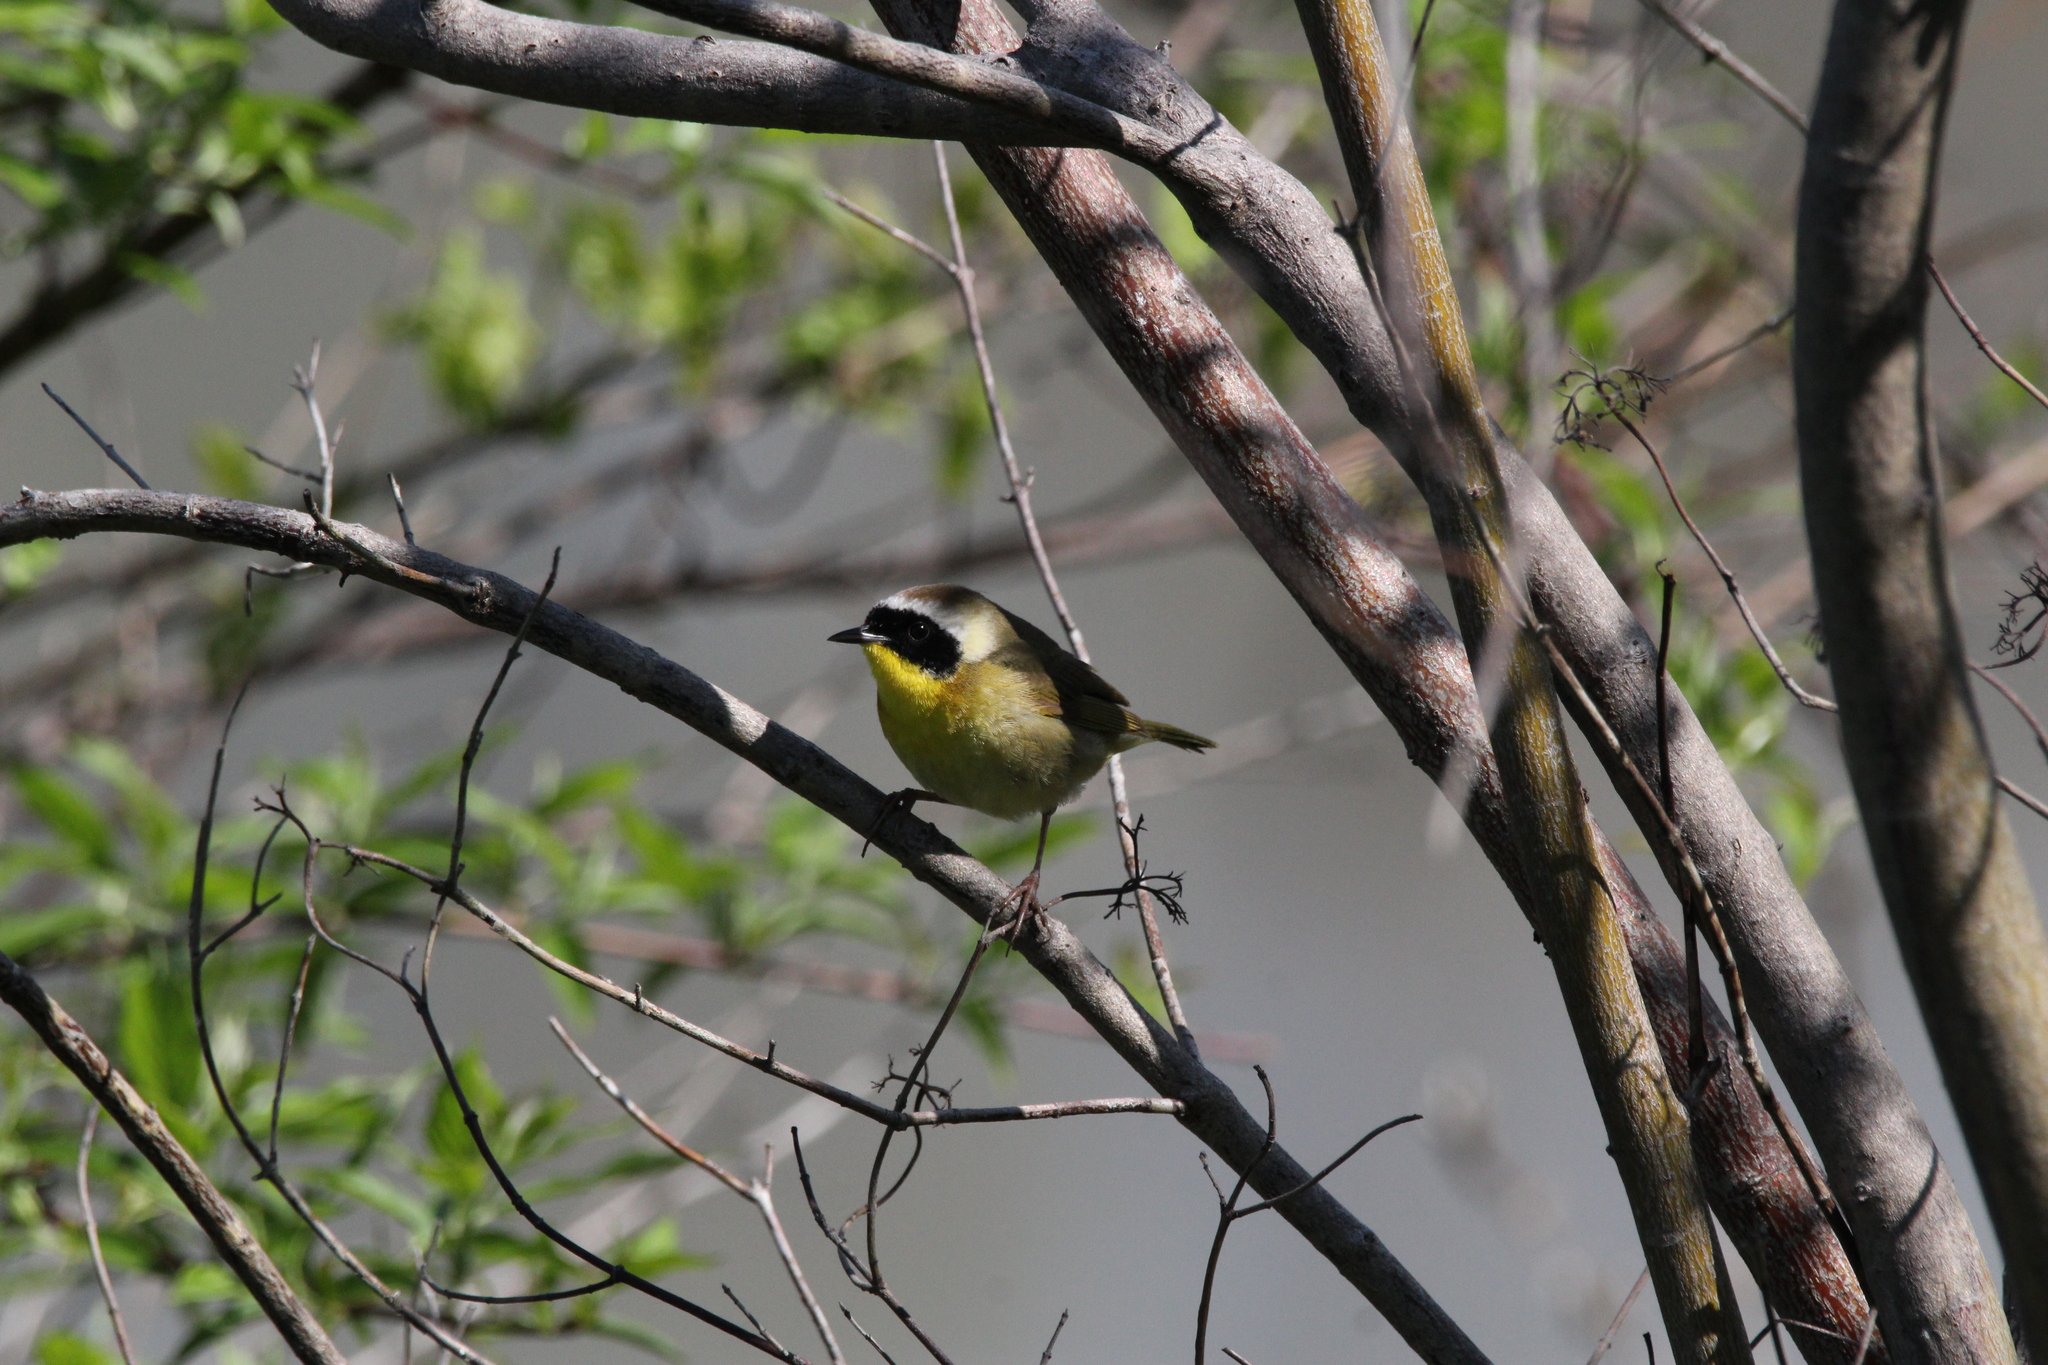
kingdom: Animalia
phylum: Chordata
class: Aves
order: Passeriformes
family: Parulidae
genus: Geothlypis
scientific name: Geothlypis trichas
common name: Common yellowthroat
